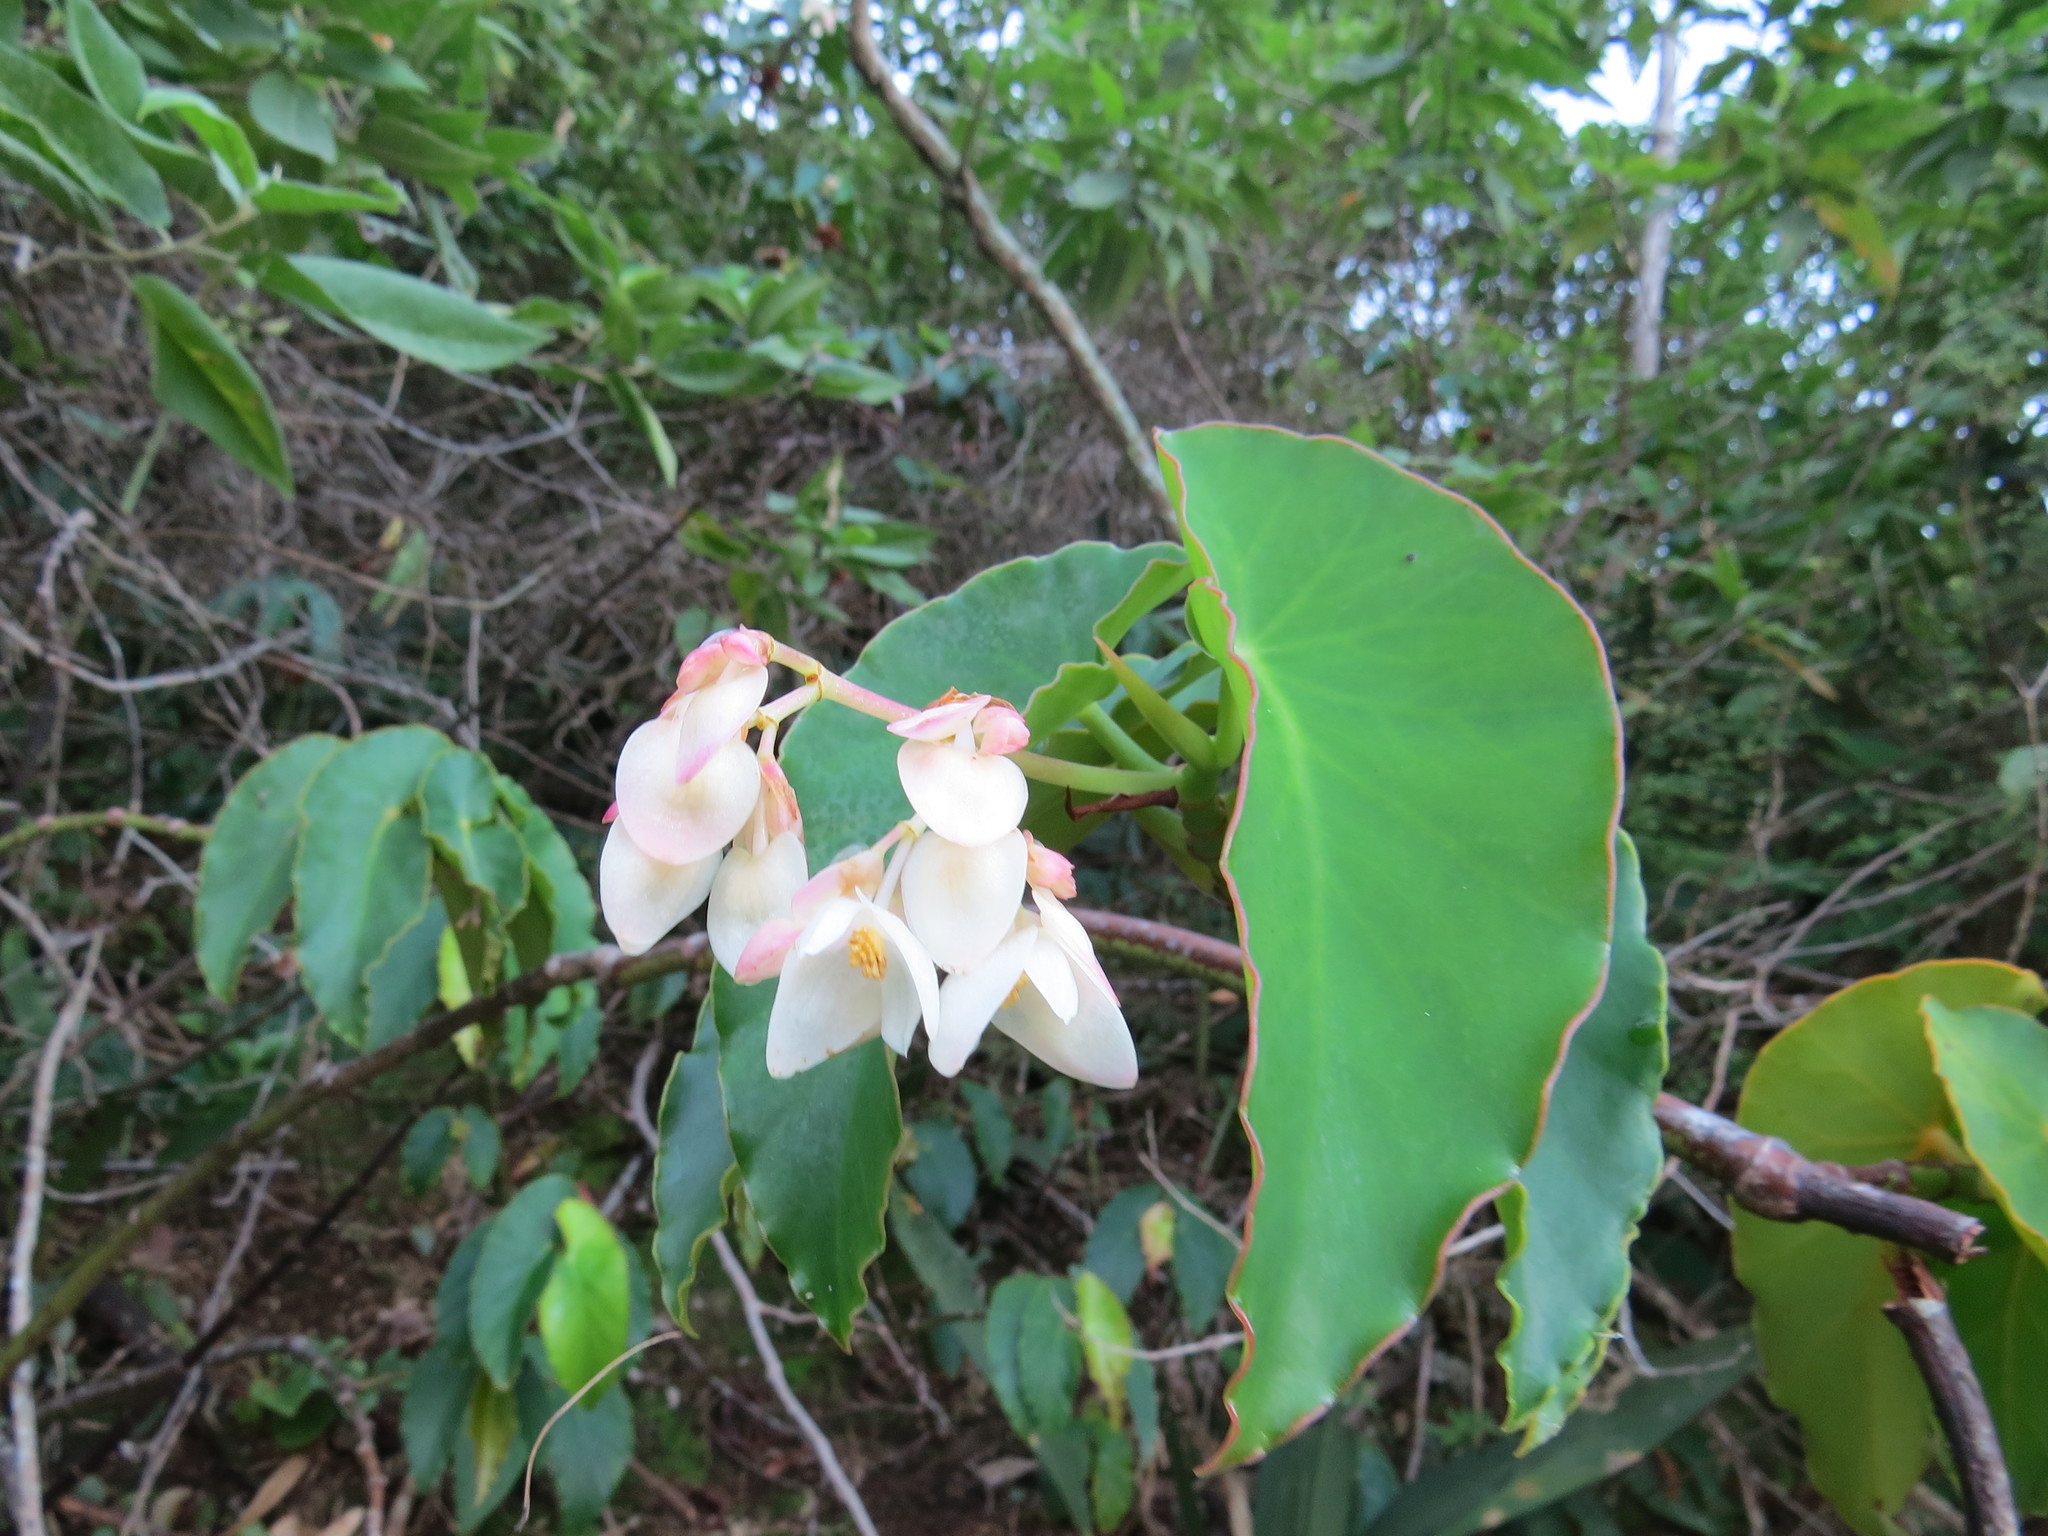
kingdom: Plantae
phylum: Tracheophyta
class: Magnoliopsida
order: Cucurbitales
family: Begoniaceae
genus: Begonia
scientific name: Begonia maculata
